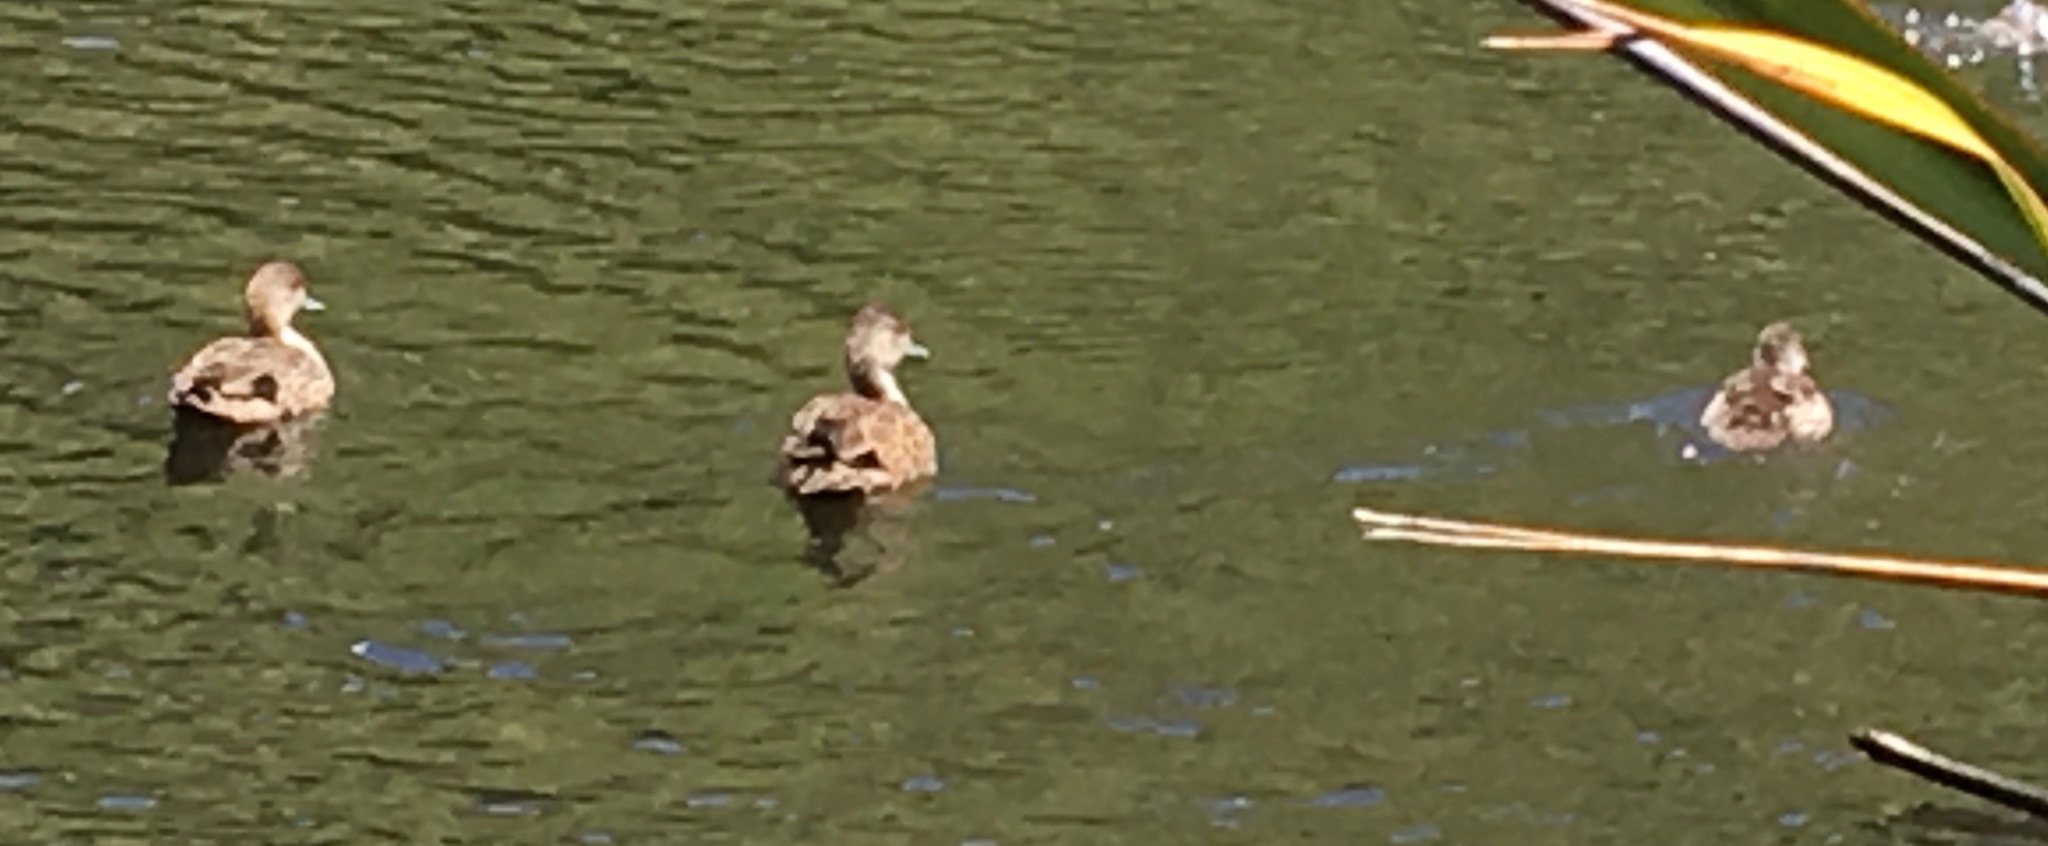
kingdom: Animalia
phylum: Chordata
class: Aves
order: Anseriformes
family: Anatidae
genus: Anas
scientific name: Anas gracilis
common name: Grey teal
